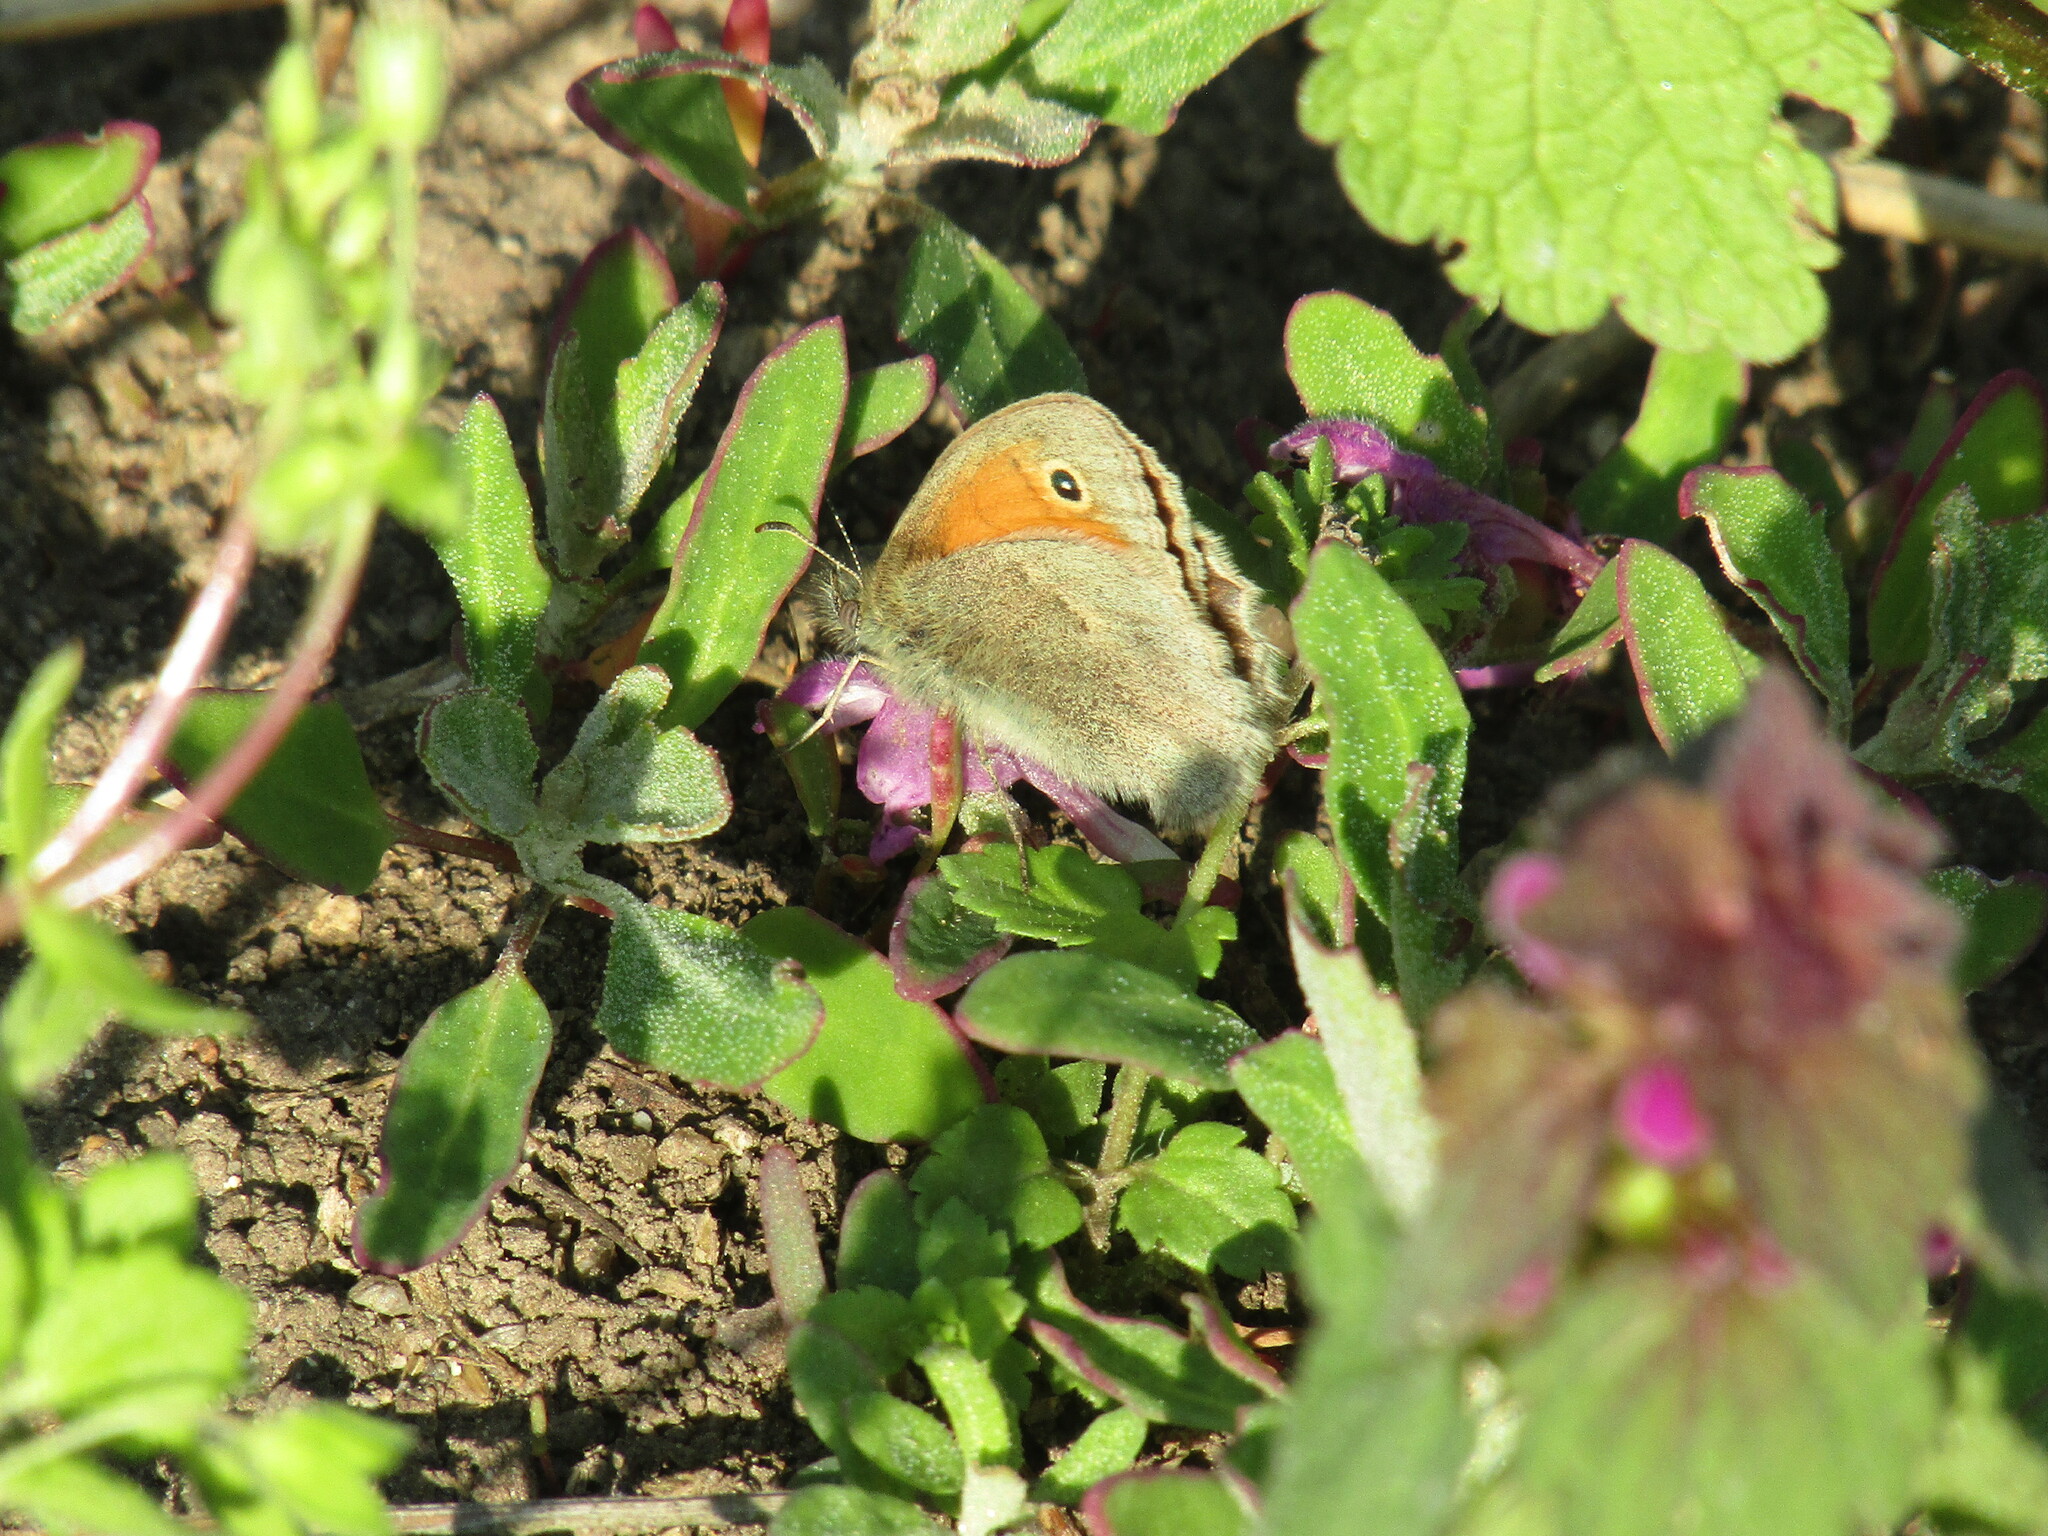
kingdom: Animalia
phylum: Arthropoda
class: Insecta
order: Lepidoptera
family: Nymphalidae
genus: Coenonympha
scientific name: Coenonympha pamphilus
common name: Small heath
